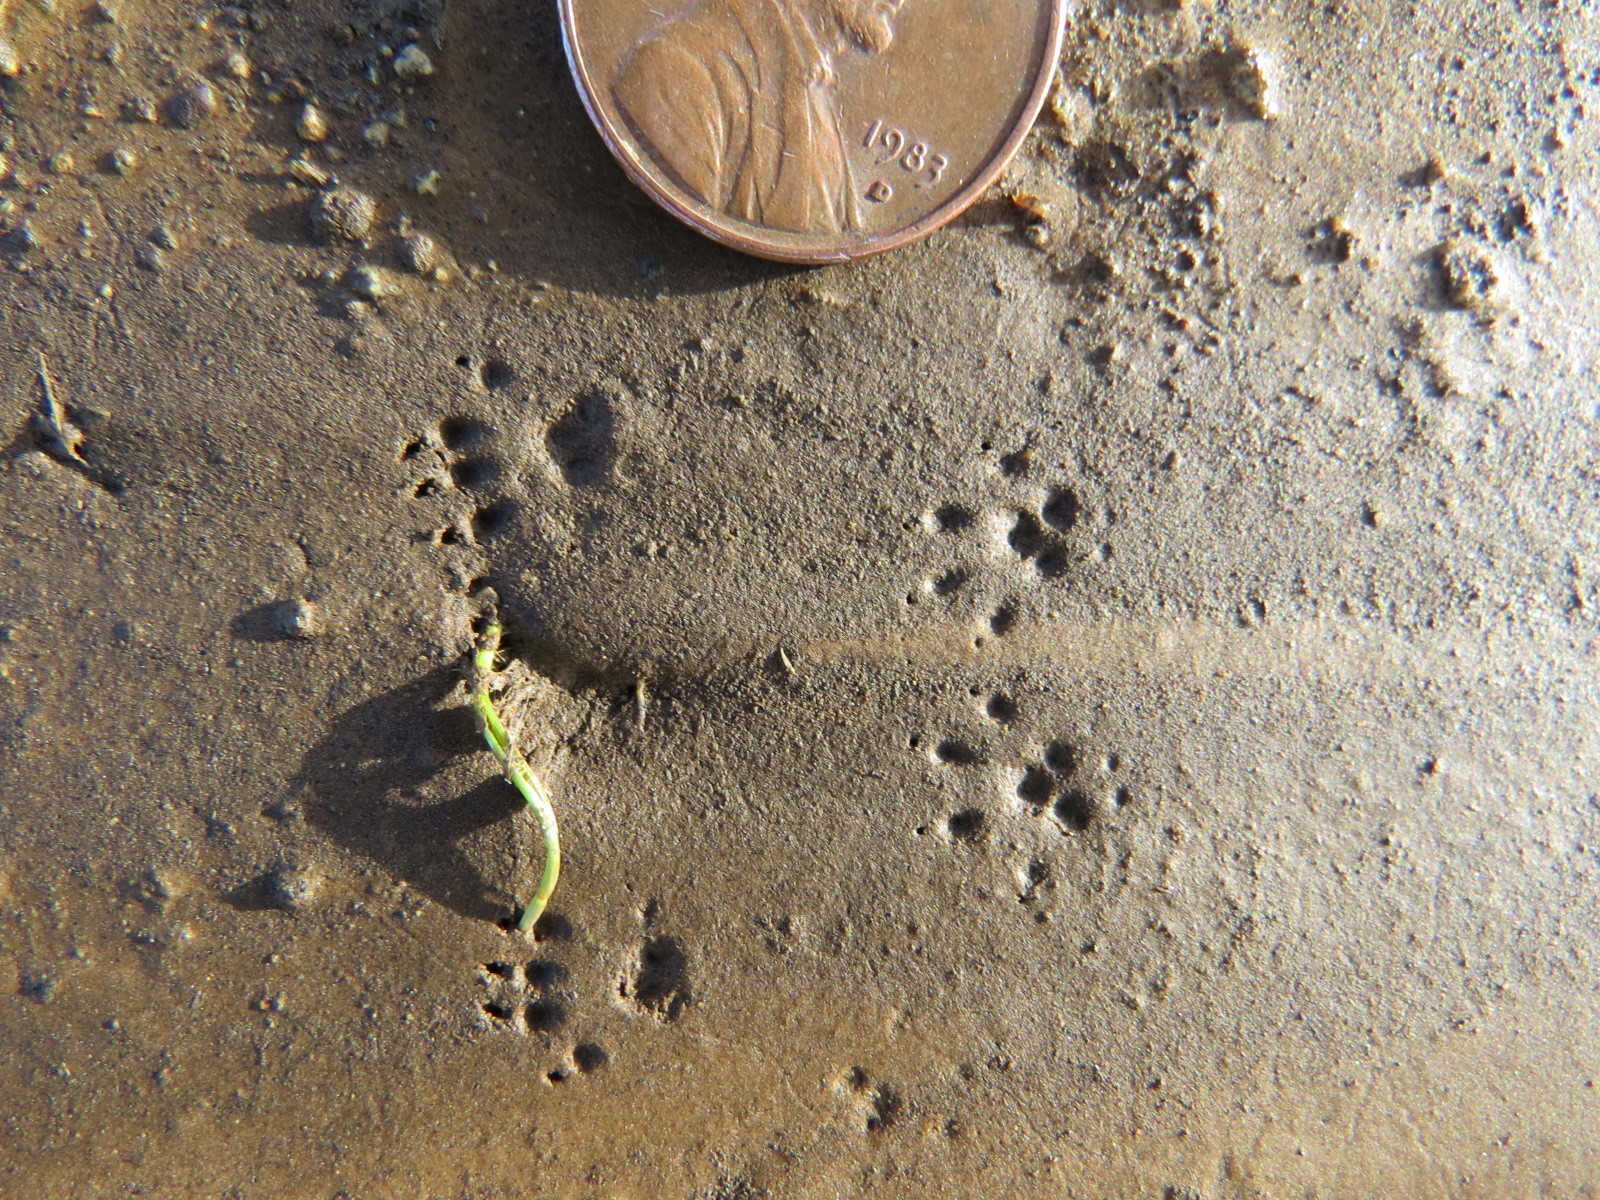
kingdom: Animalia
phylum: Chordata
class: Mammalia
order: Rodentia
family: Cricetidae
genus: Reithrodontomys
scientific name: Reithrodontomys megalotis
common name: Western harvest mouse
